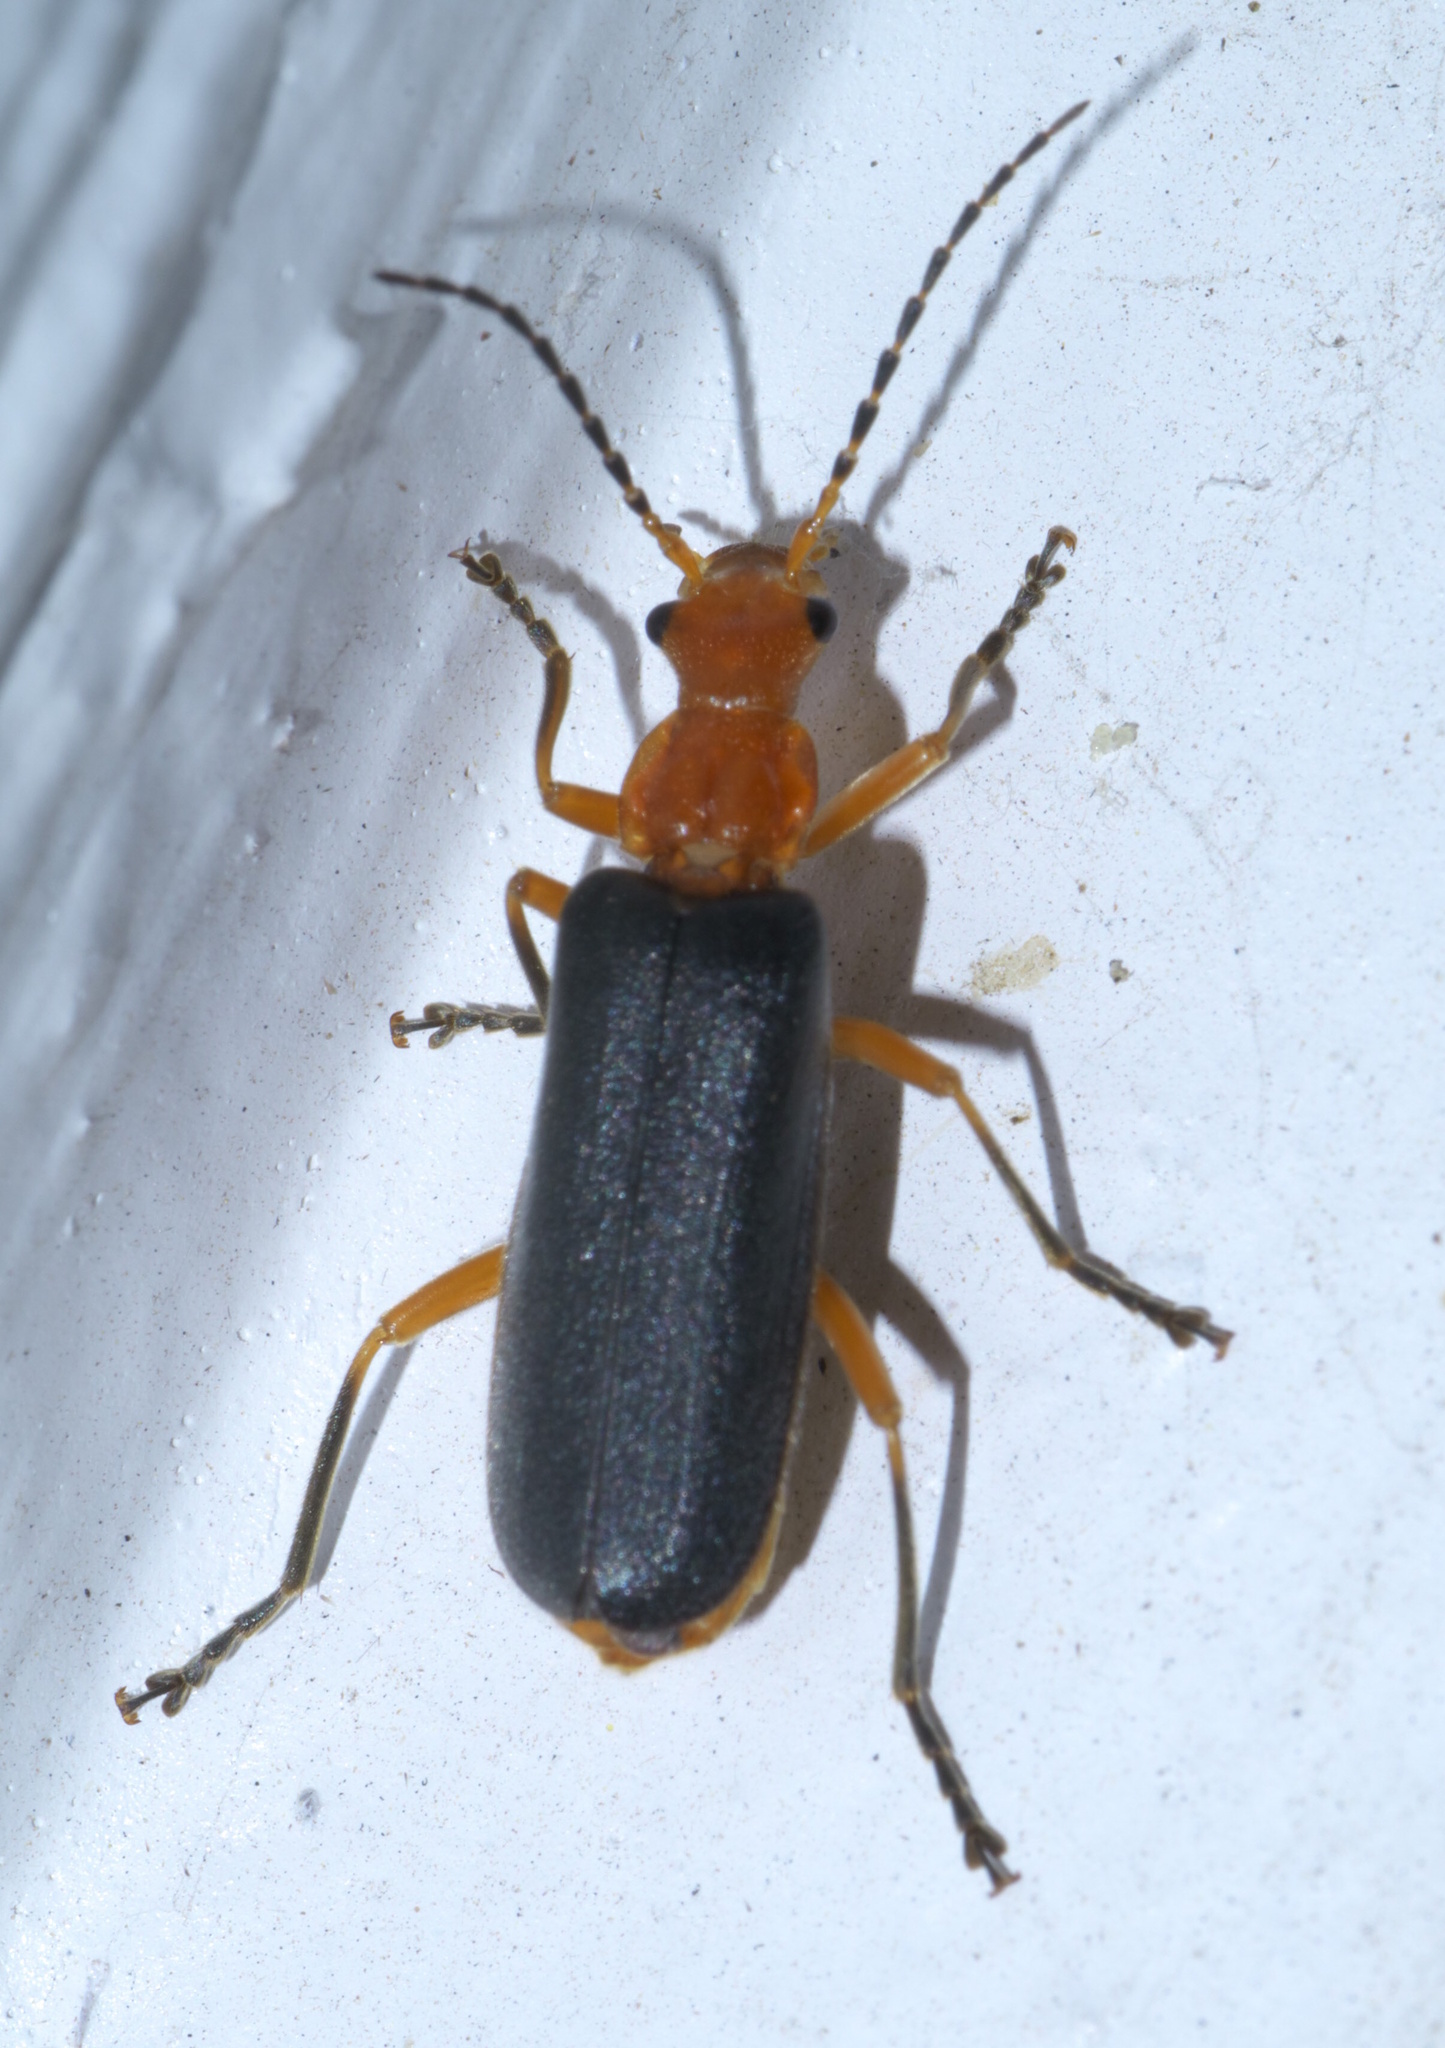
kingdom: Animalia
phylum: Arthropoda
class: Insecta
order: Coleoptera
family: Cantharidae
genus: Podabrus
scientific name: Podabrus tomentosus
